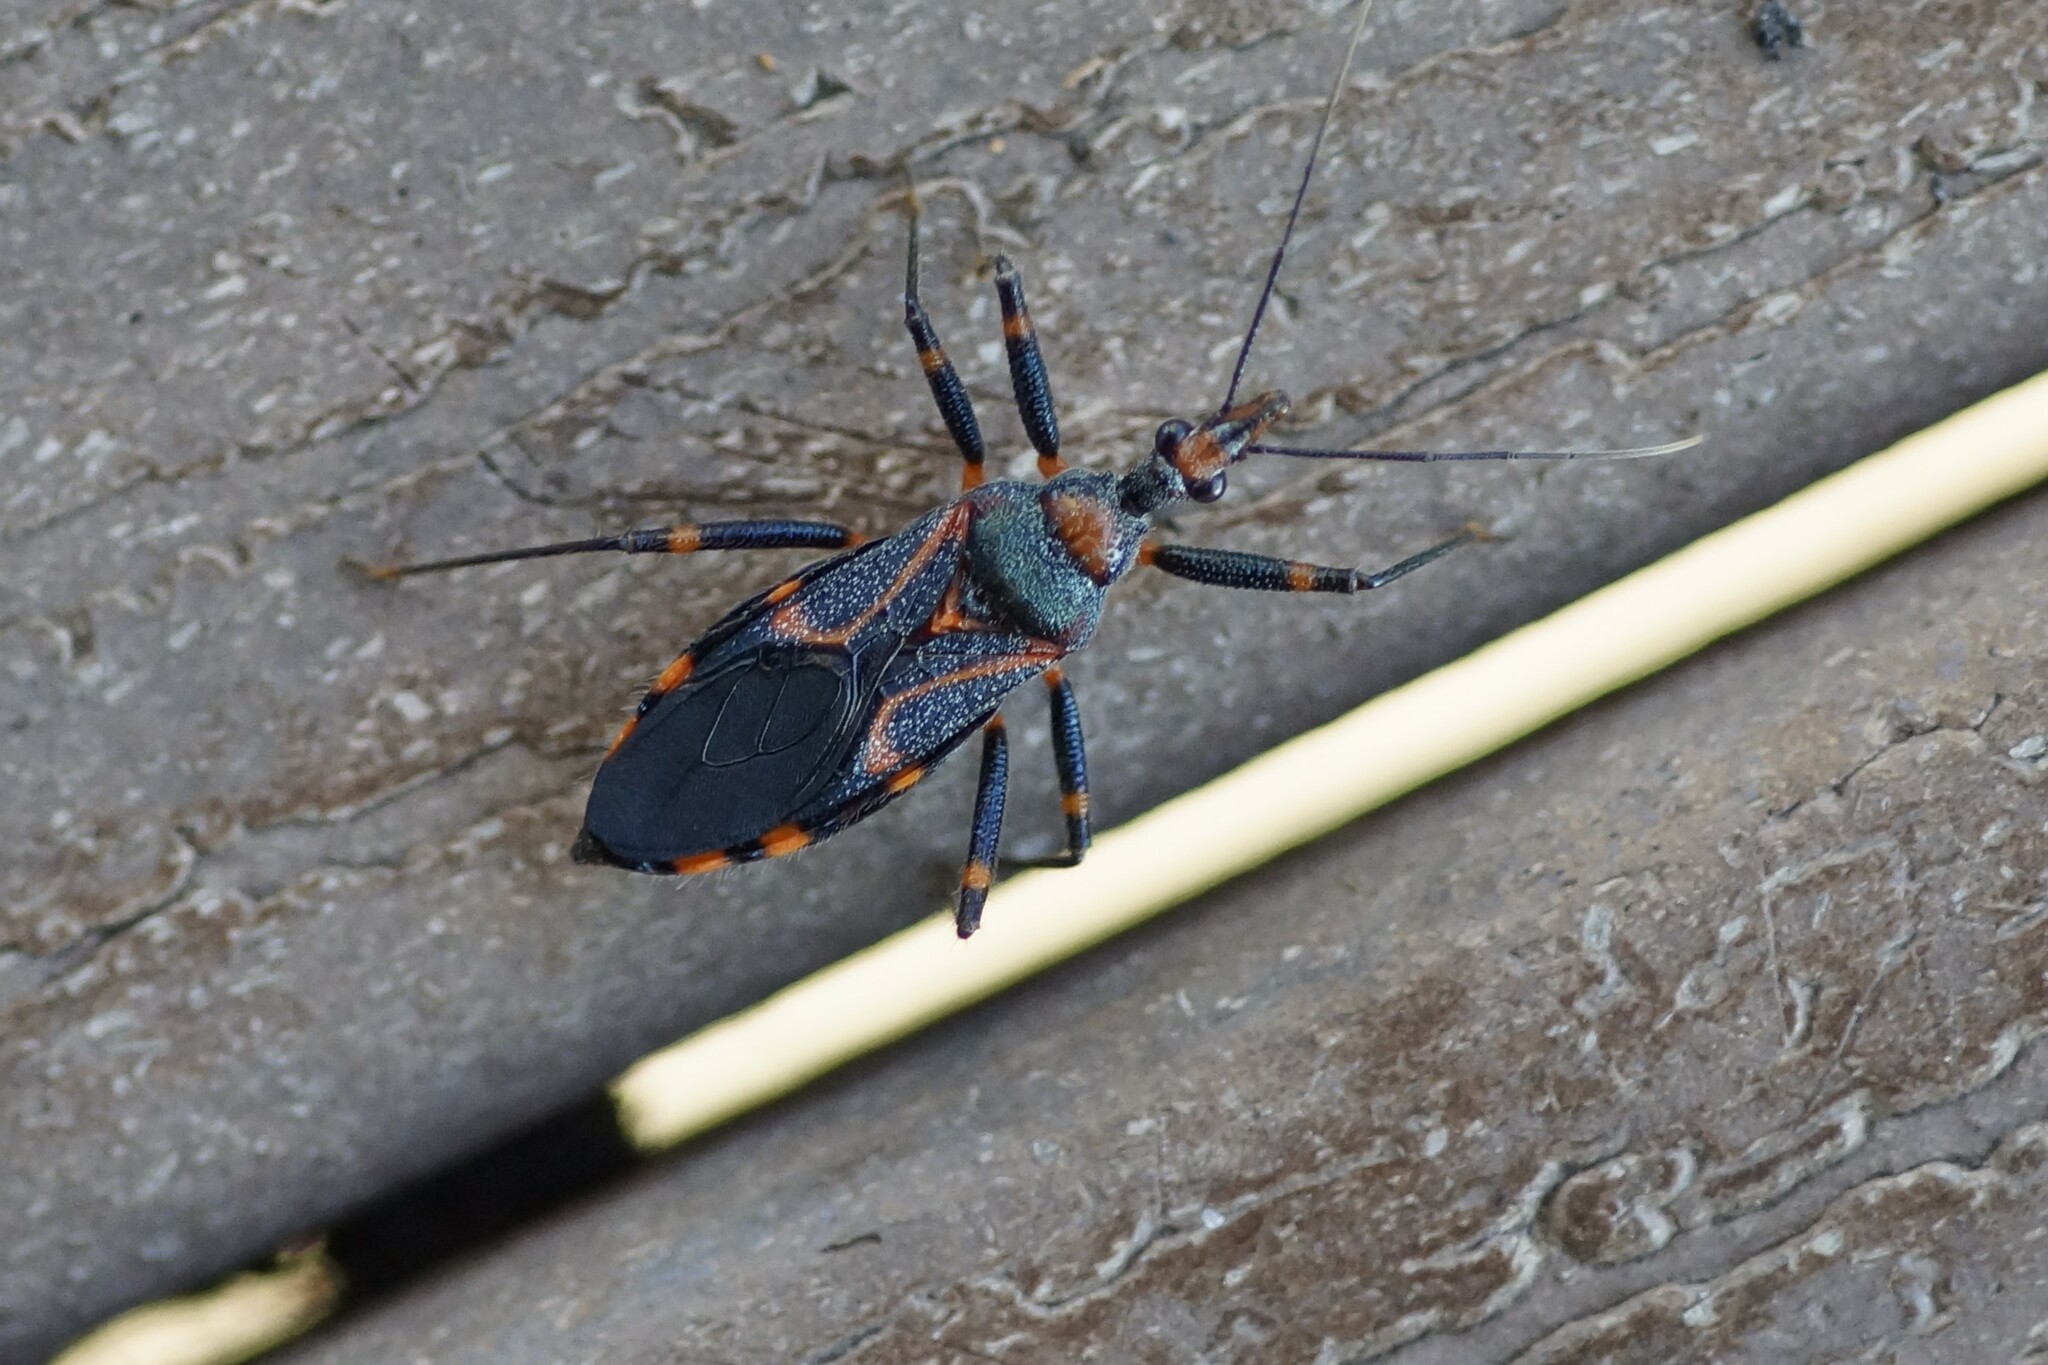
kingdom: Animalia
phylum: Arthropoda
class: Insecta
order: Hemiptera
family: Reduviidae
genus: Havinthus
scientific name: Havinthus longiceps
